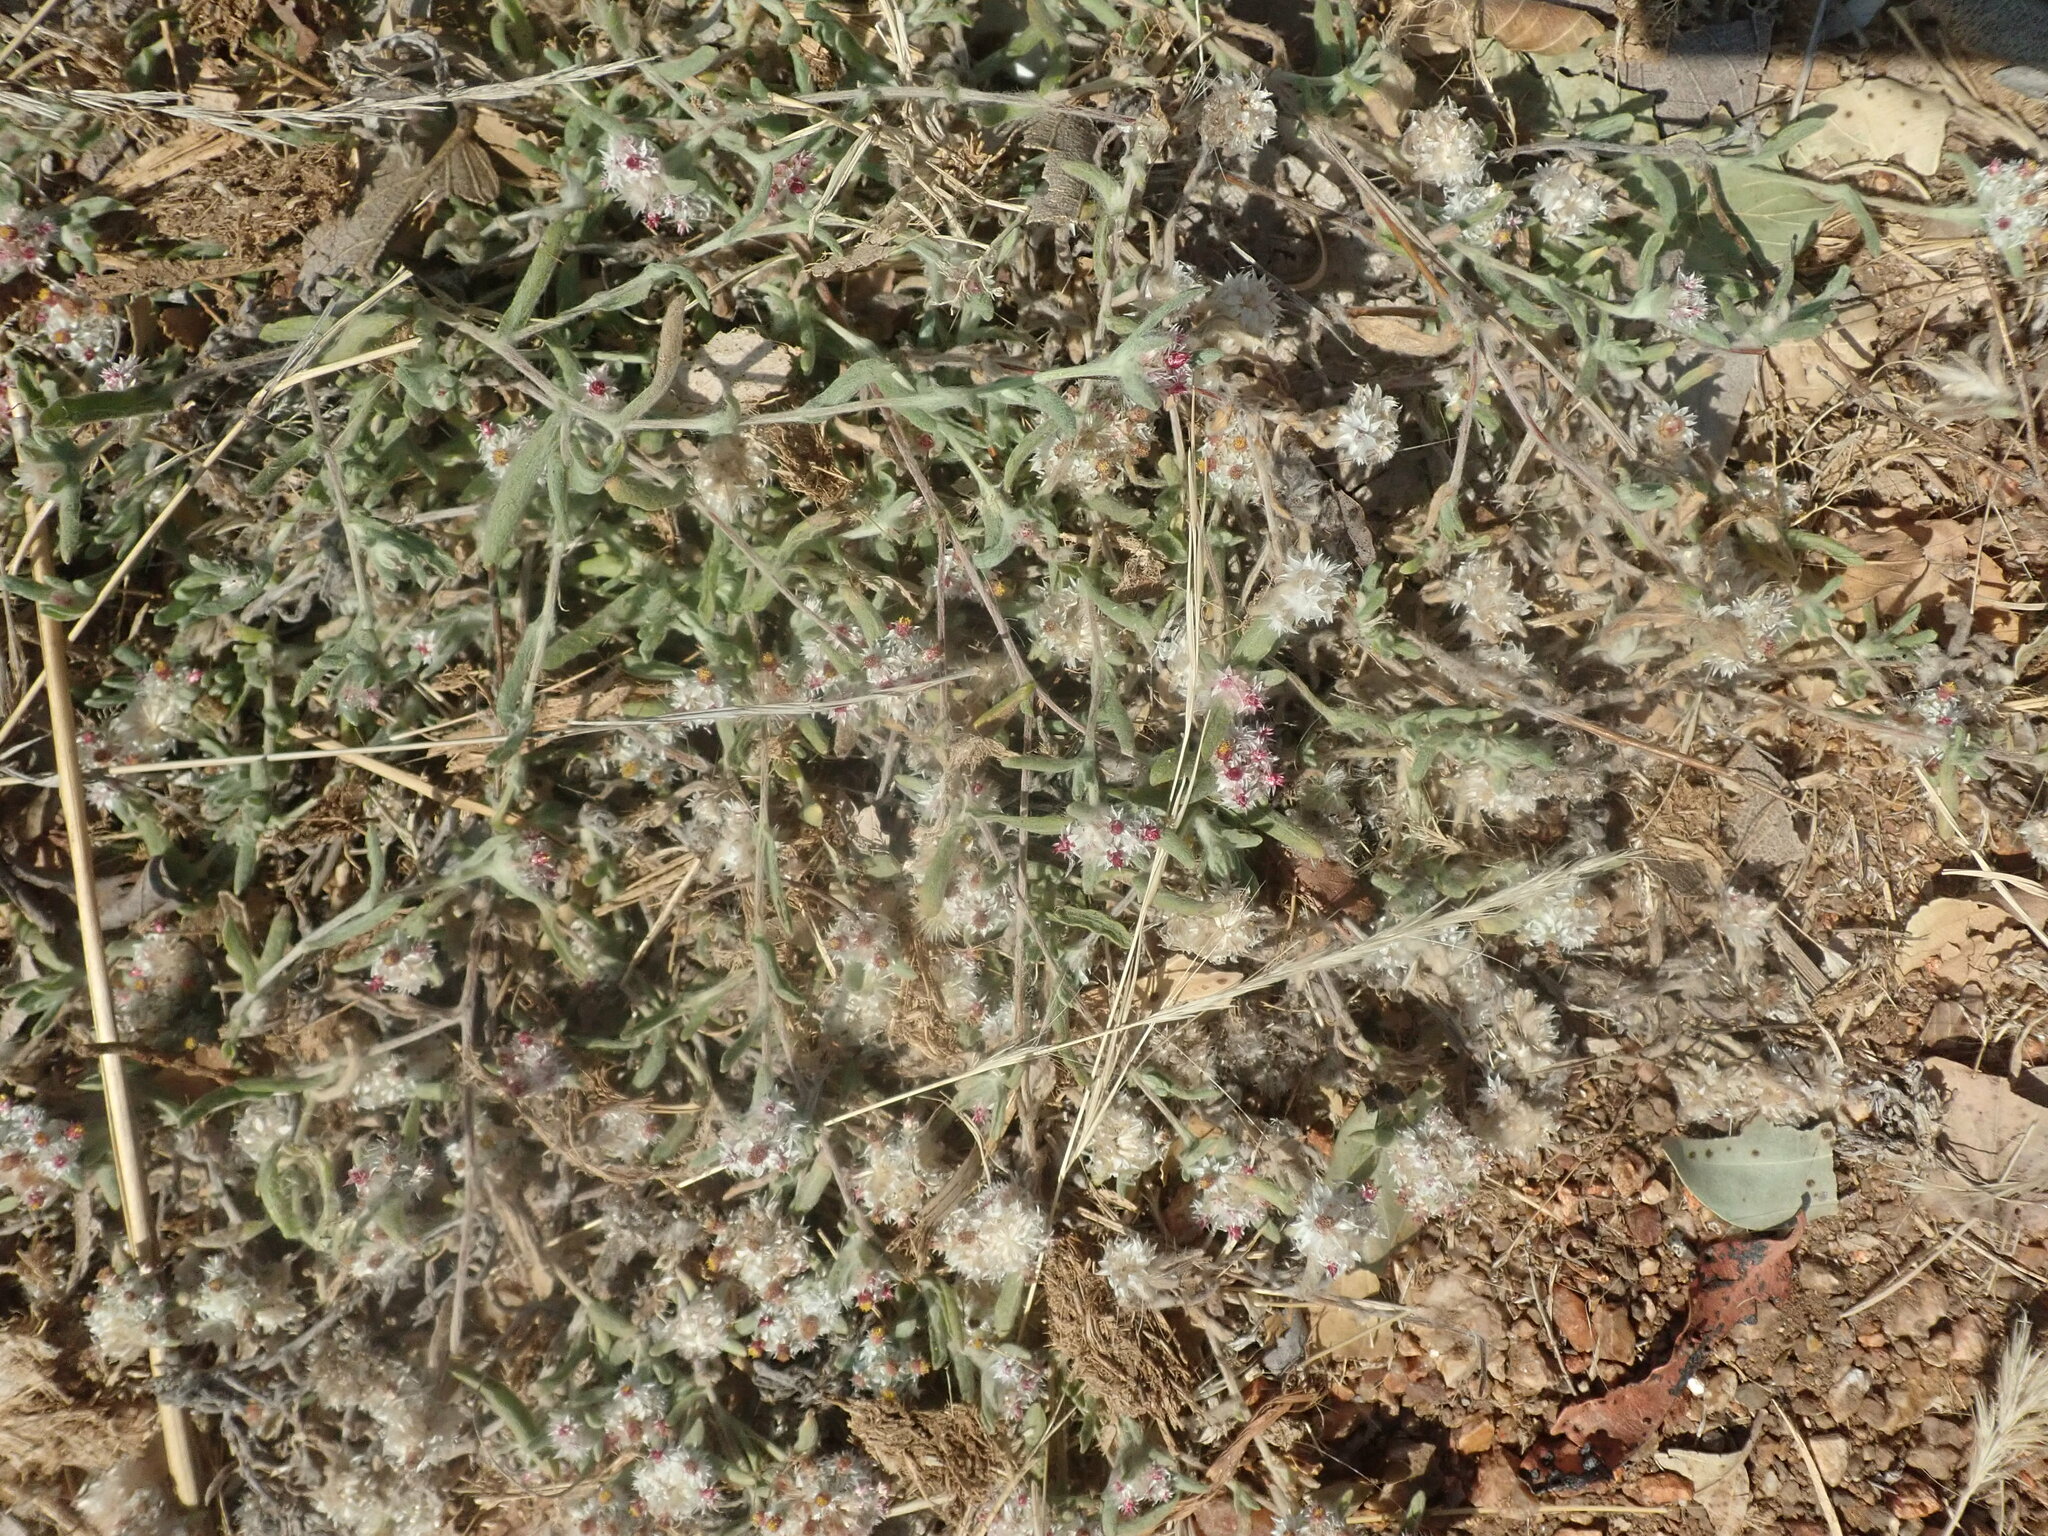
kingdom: Plantae
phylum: Tracheophyta
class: Magnoliopsida
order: Asterales
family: Asteraceae
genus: Helichrysum
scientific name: Helichrysum candolleanum
